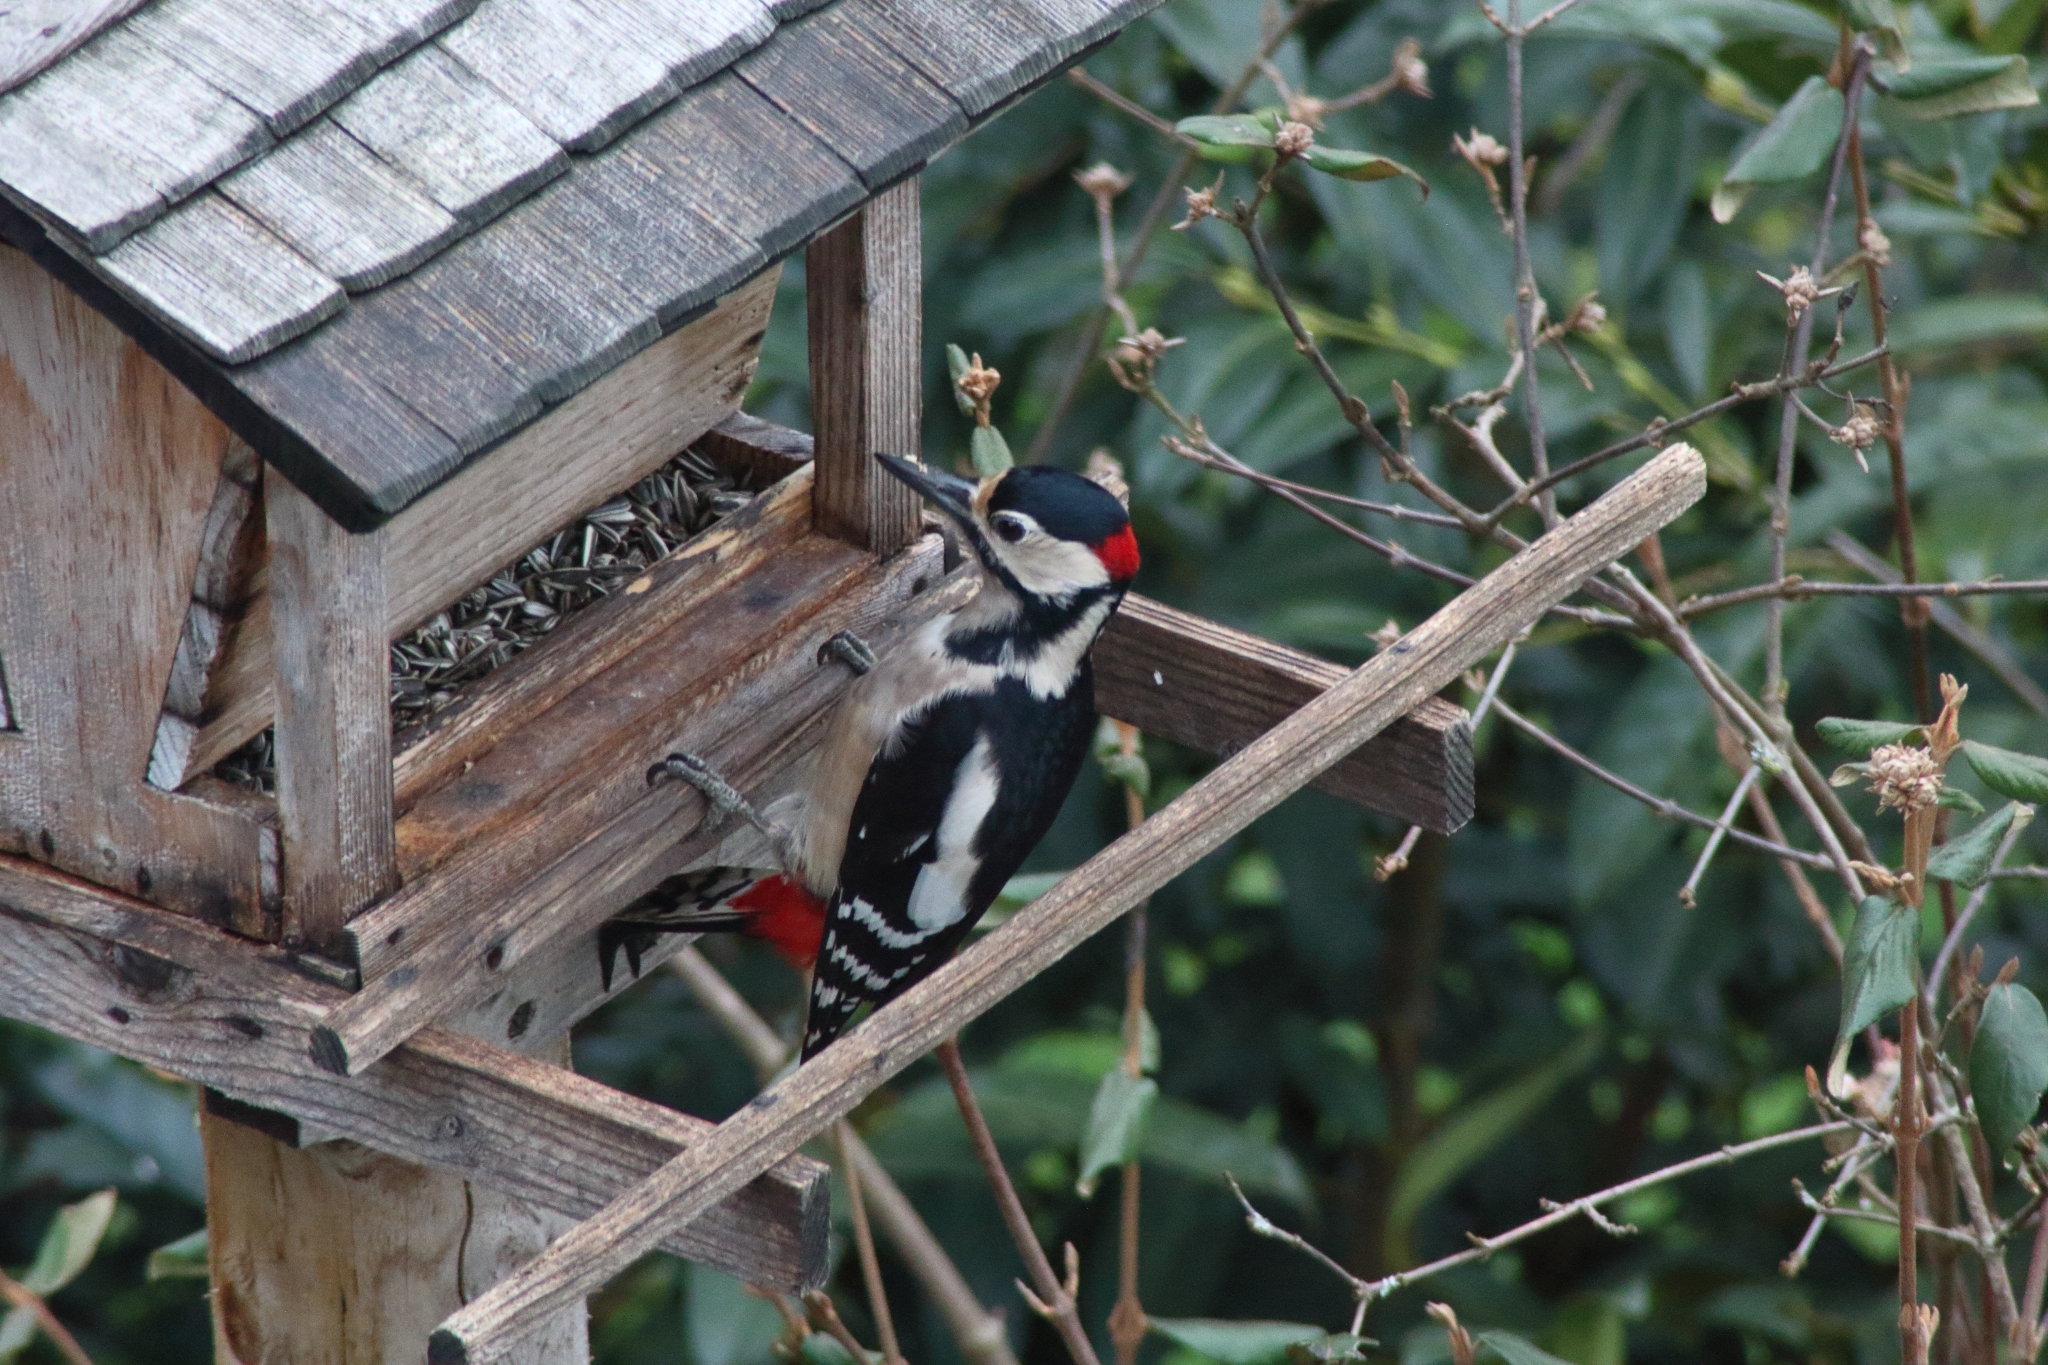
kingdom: Animalia
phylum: Chordata
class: Aves
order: Piciformes
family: Picidae
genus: Dendrocopos
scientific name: Dendrocopos major
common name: Great spotted woodpecker
